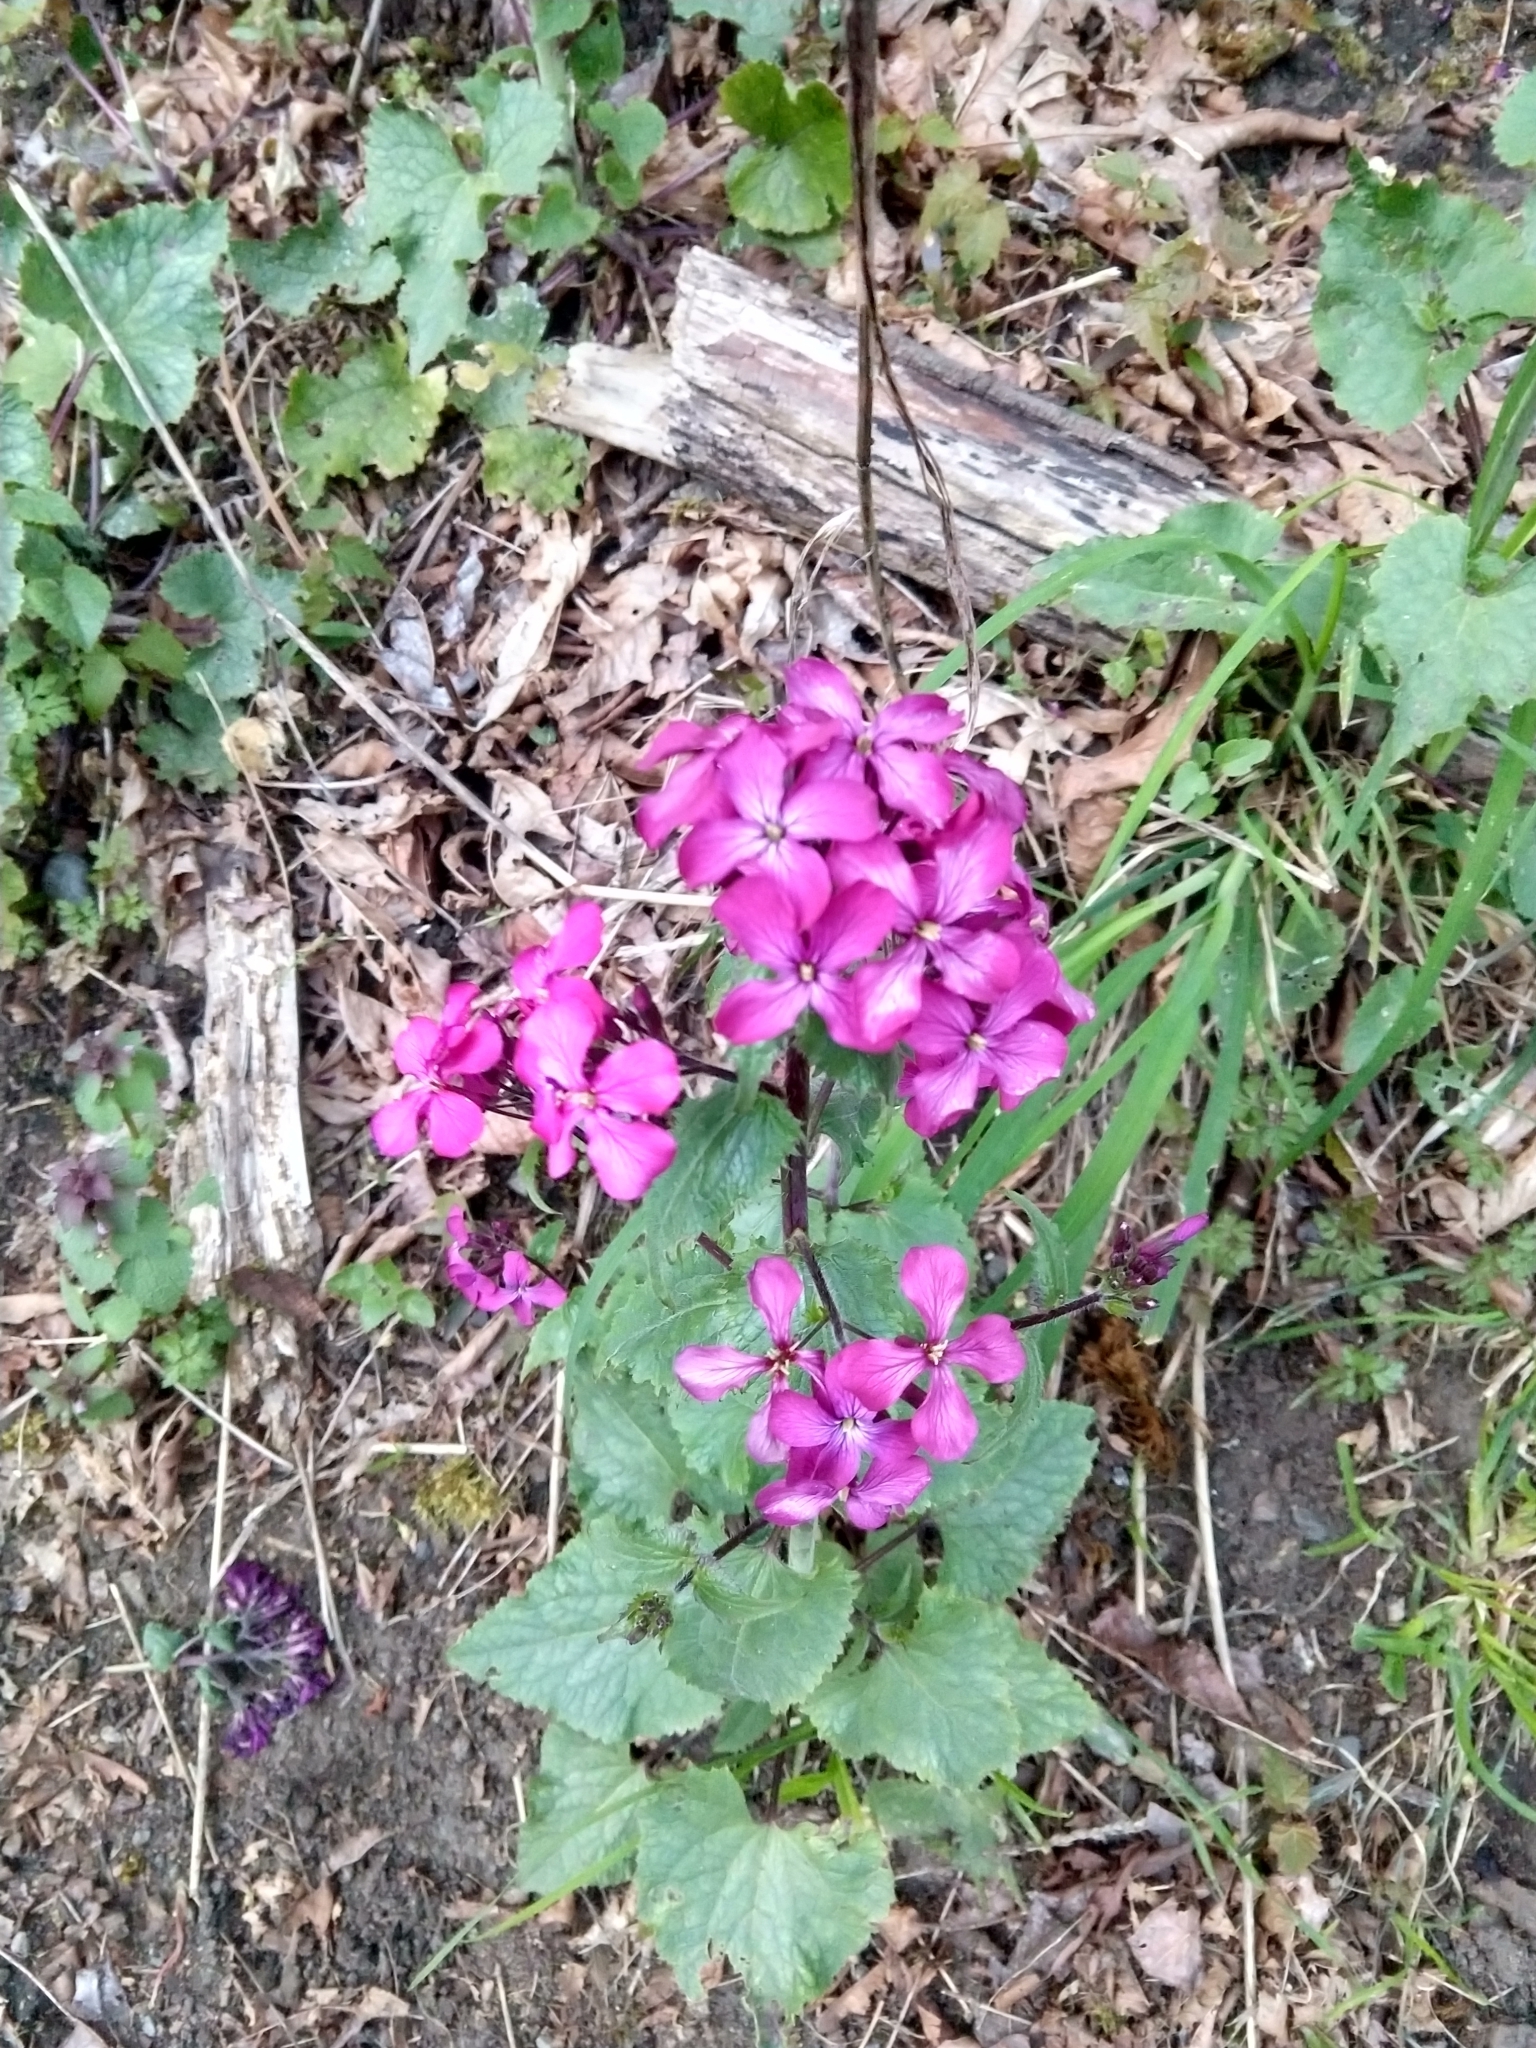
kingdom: Plantae
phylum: Tracheophyta
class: Magnoliopsida
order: Brassicales
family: Brassicaceae
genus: Lunaria
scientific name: Lunaria annua
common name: Honesty
